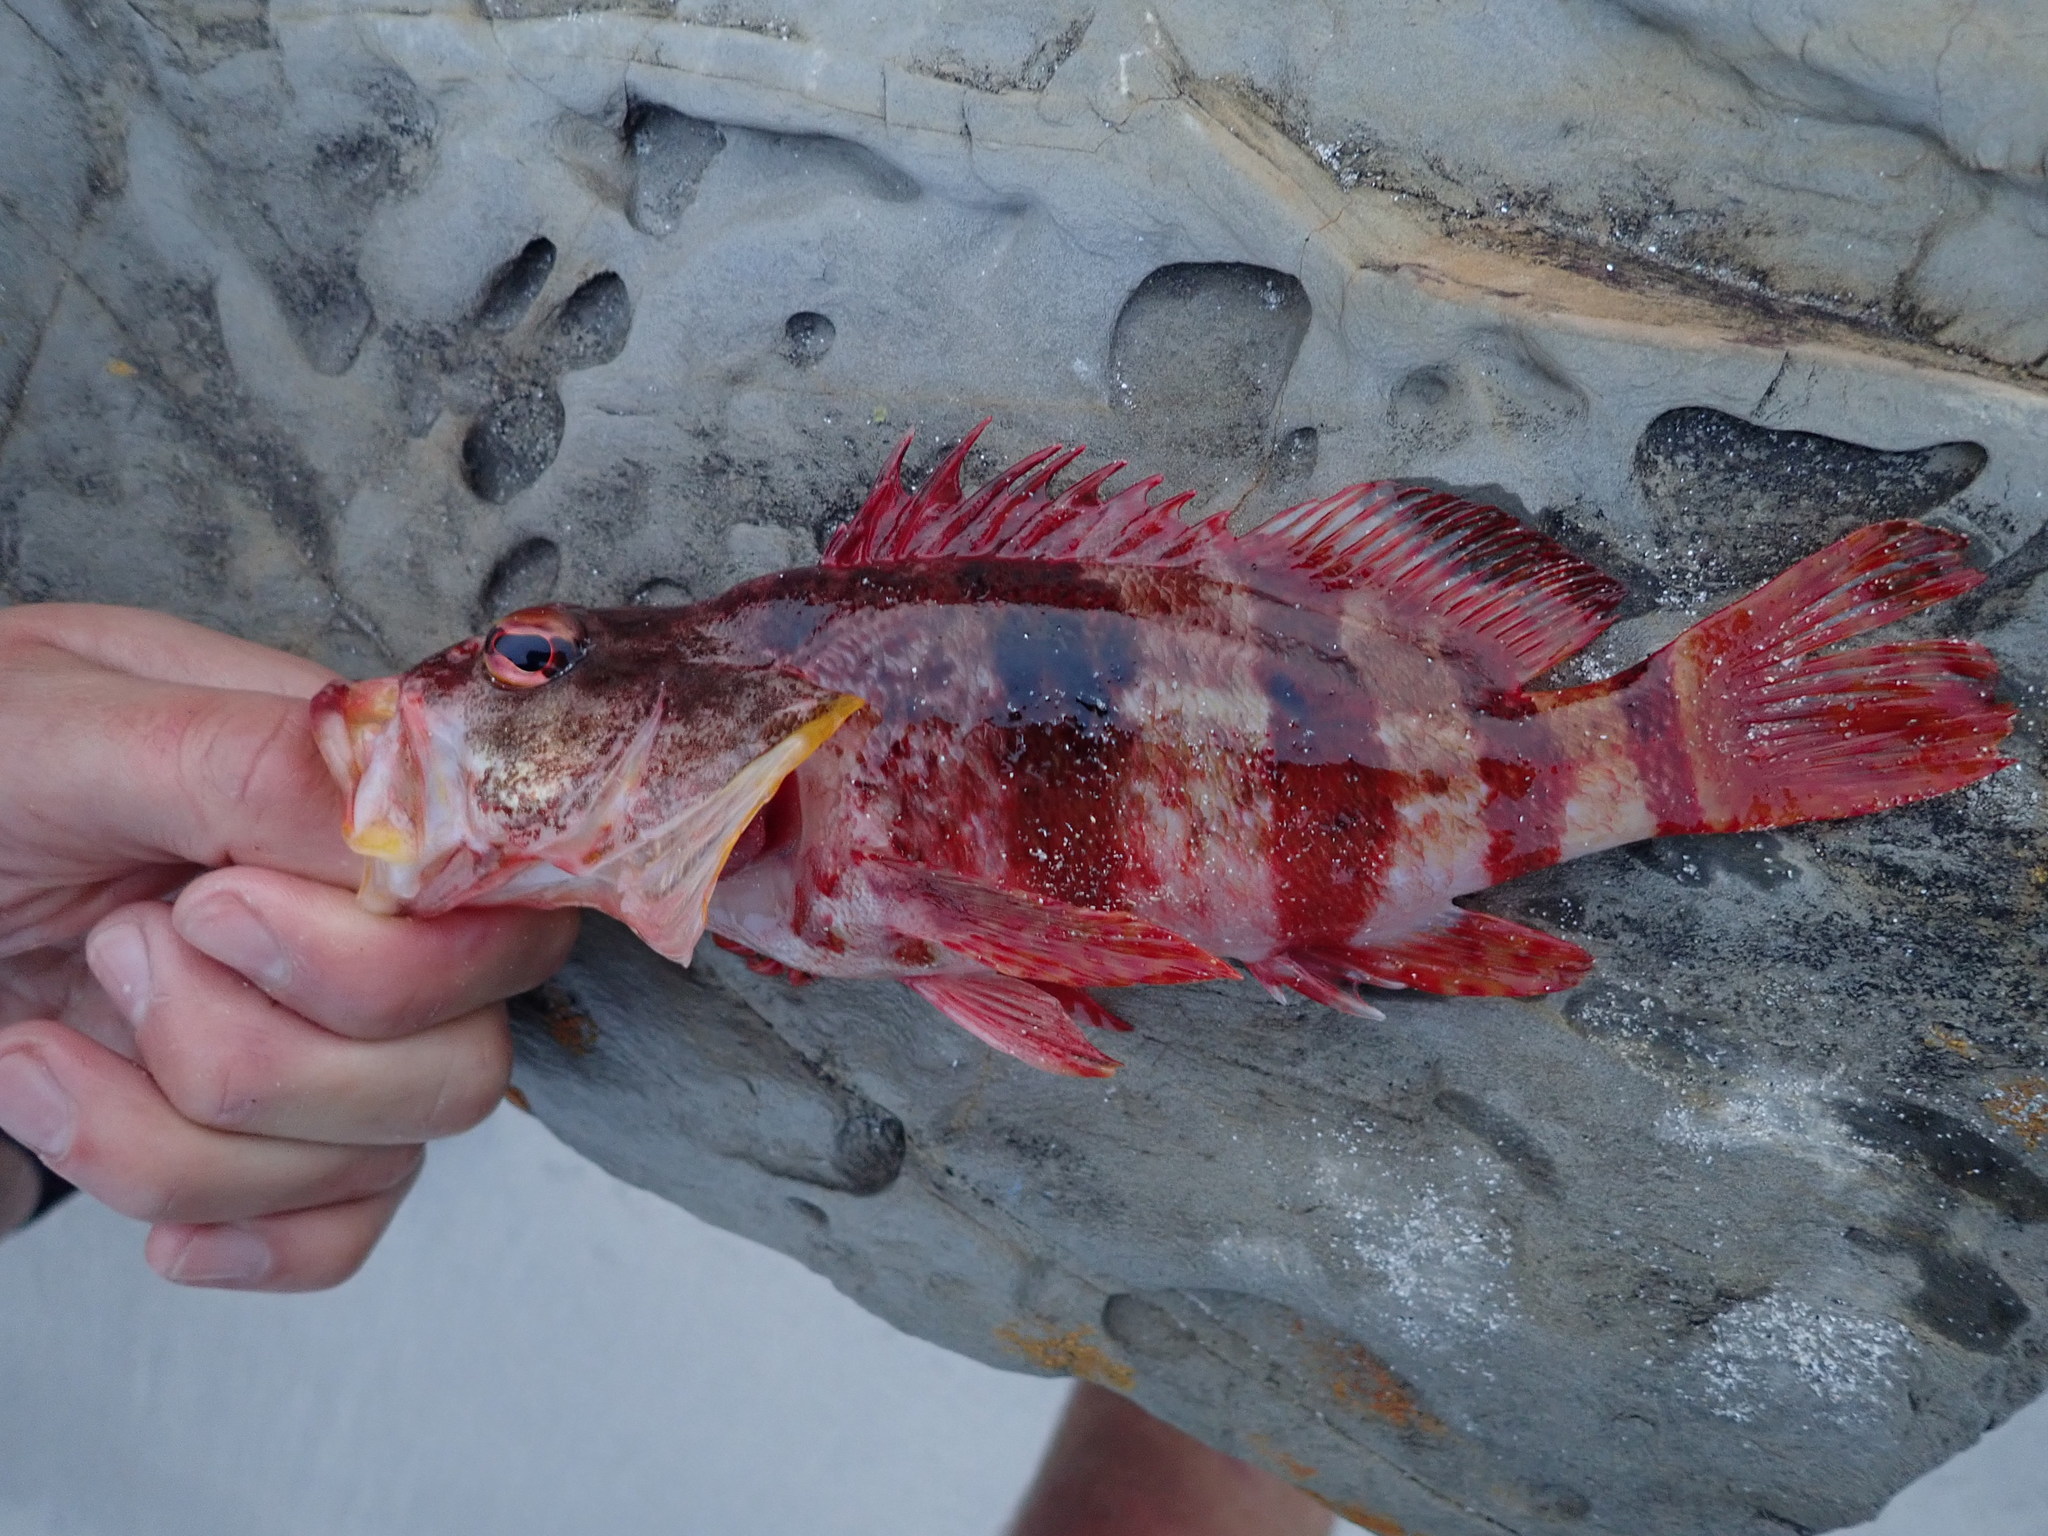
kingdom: Animalia
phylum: Chordata
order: Perciformes
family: Serranidae
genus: Hypoplectrodes
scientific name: Hypoplectrodes nigroruber
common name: Banded seaperch
